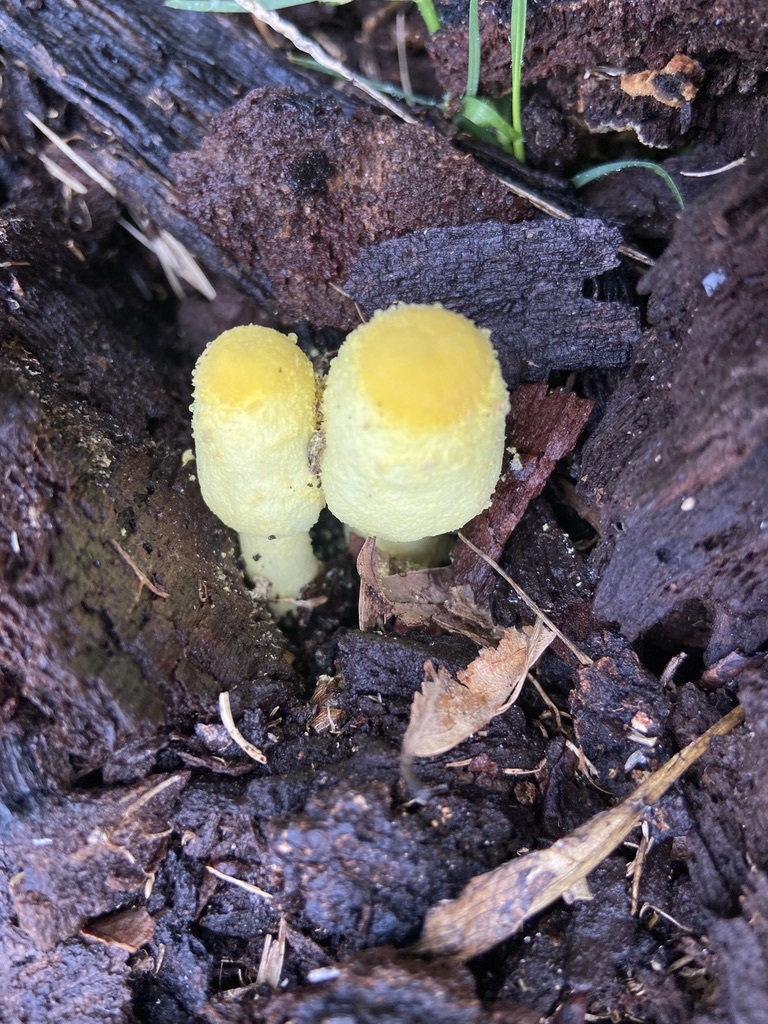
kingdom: Fungi
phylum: Basidiomycota
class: Agaricomycetes
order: Agaricales
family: Agaricaceae
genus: Leucocoprinus
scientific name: Leucocoprinus birnbaumii
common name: Plantpot dapperling
